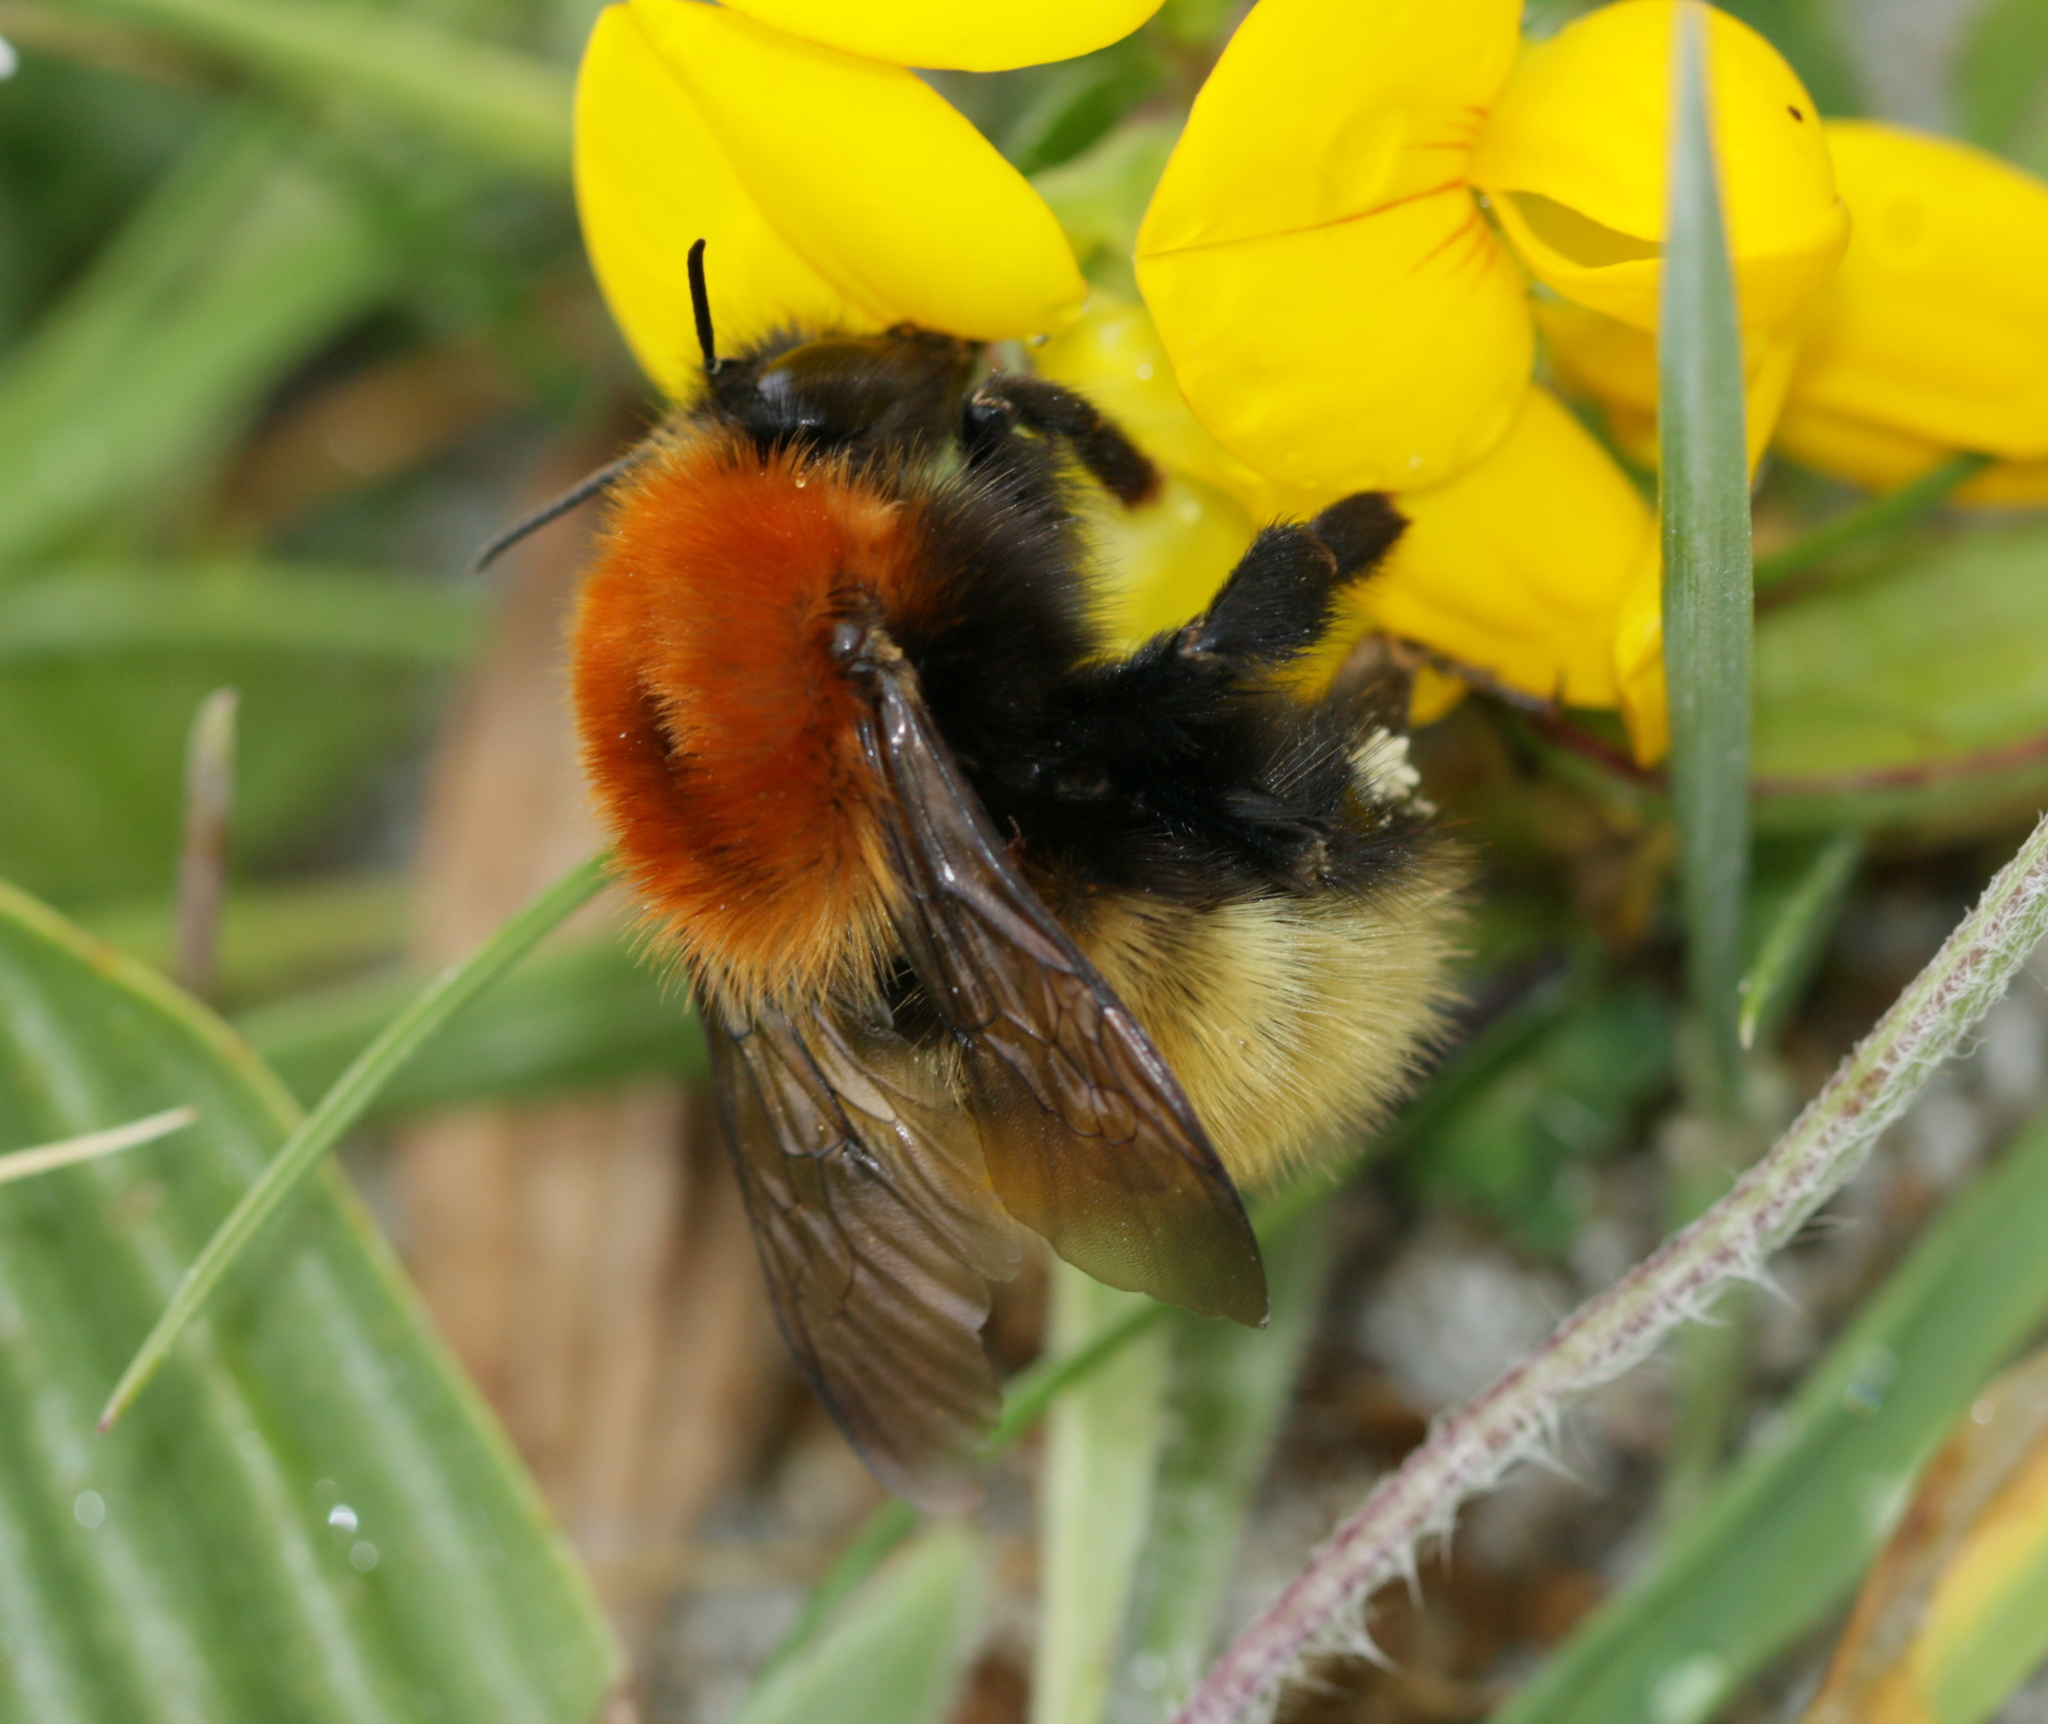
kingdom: Animalia
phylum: Arthropoda
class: Insecta
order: Hymenoptera
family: Apidae
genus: Bombus
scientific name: Bombus muscorum
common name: Moss carder-bee
